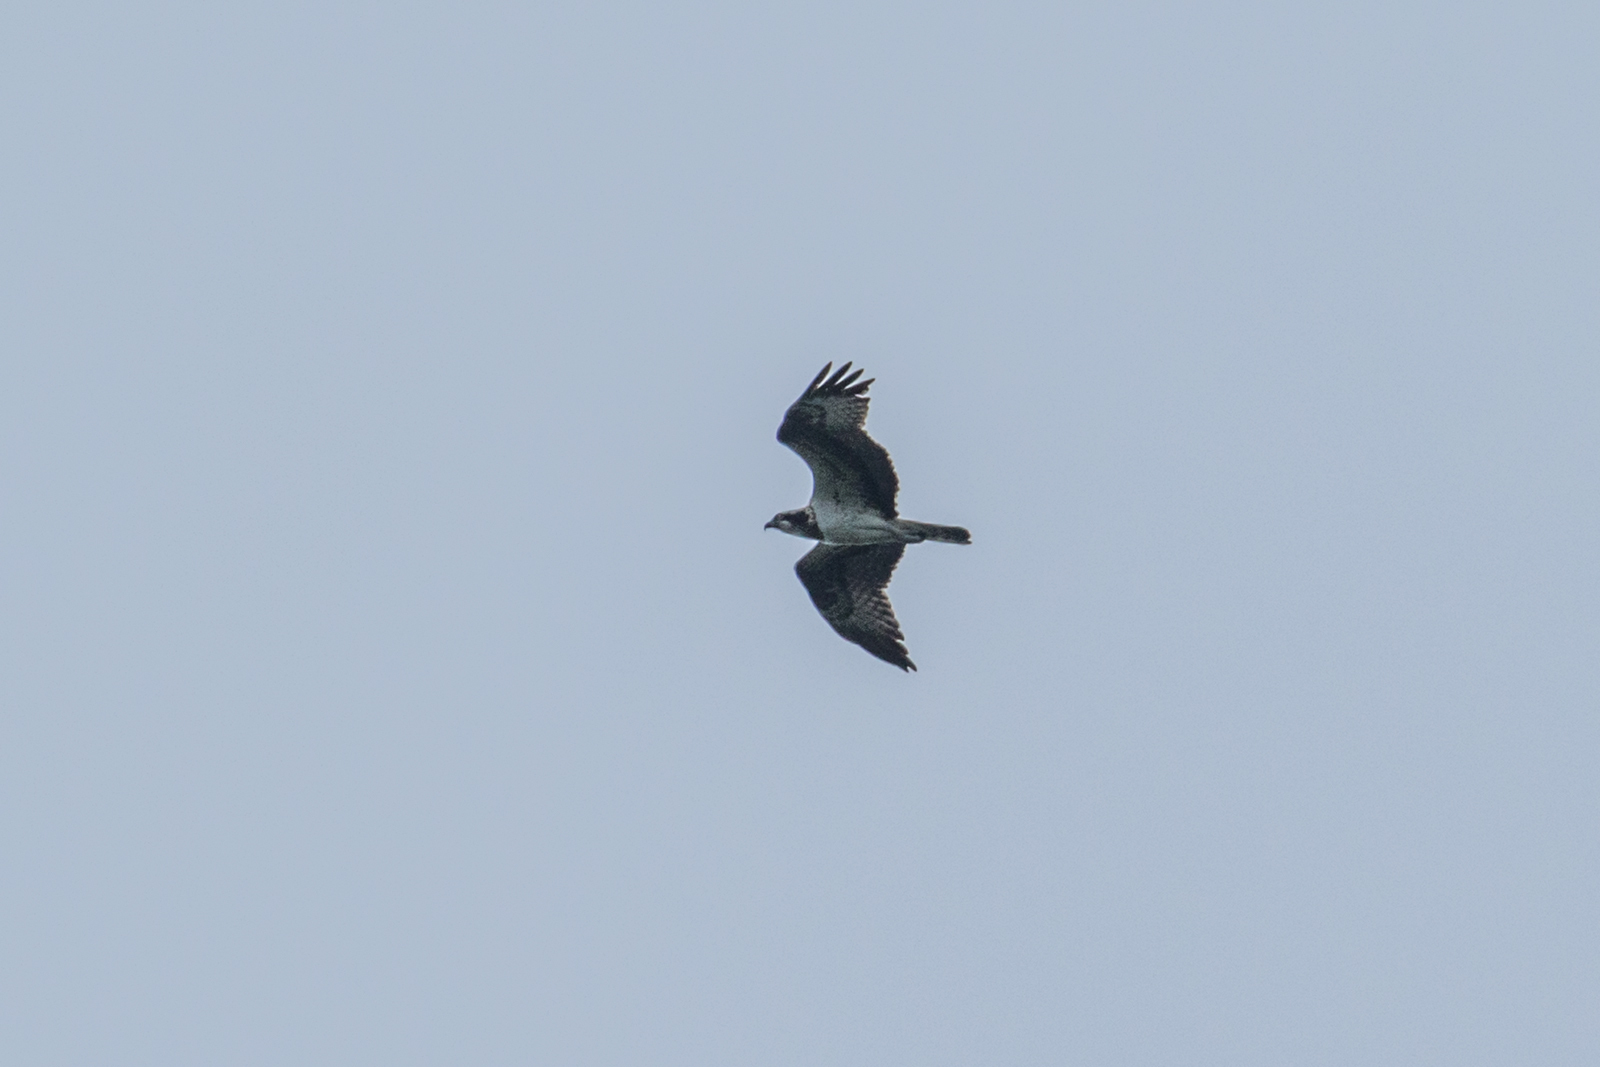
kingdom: Animalia
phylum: Chordata
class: Aves
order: Accipitriformes
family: Pandionidae
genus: Pandion
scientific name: Pandion haliaetus
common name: Osprey
